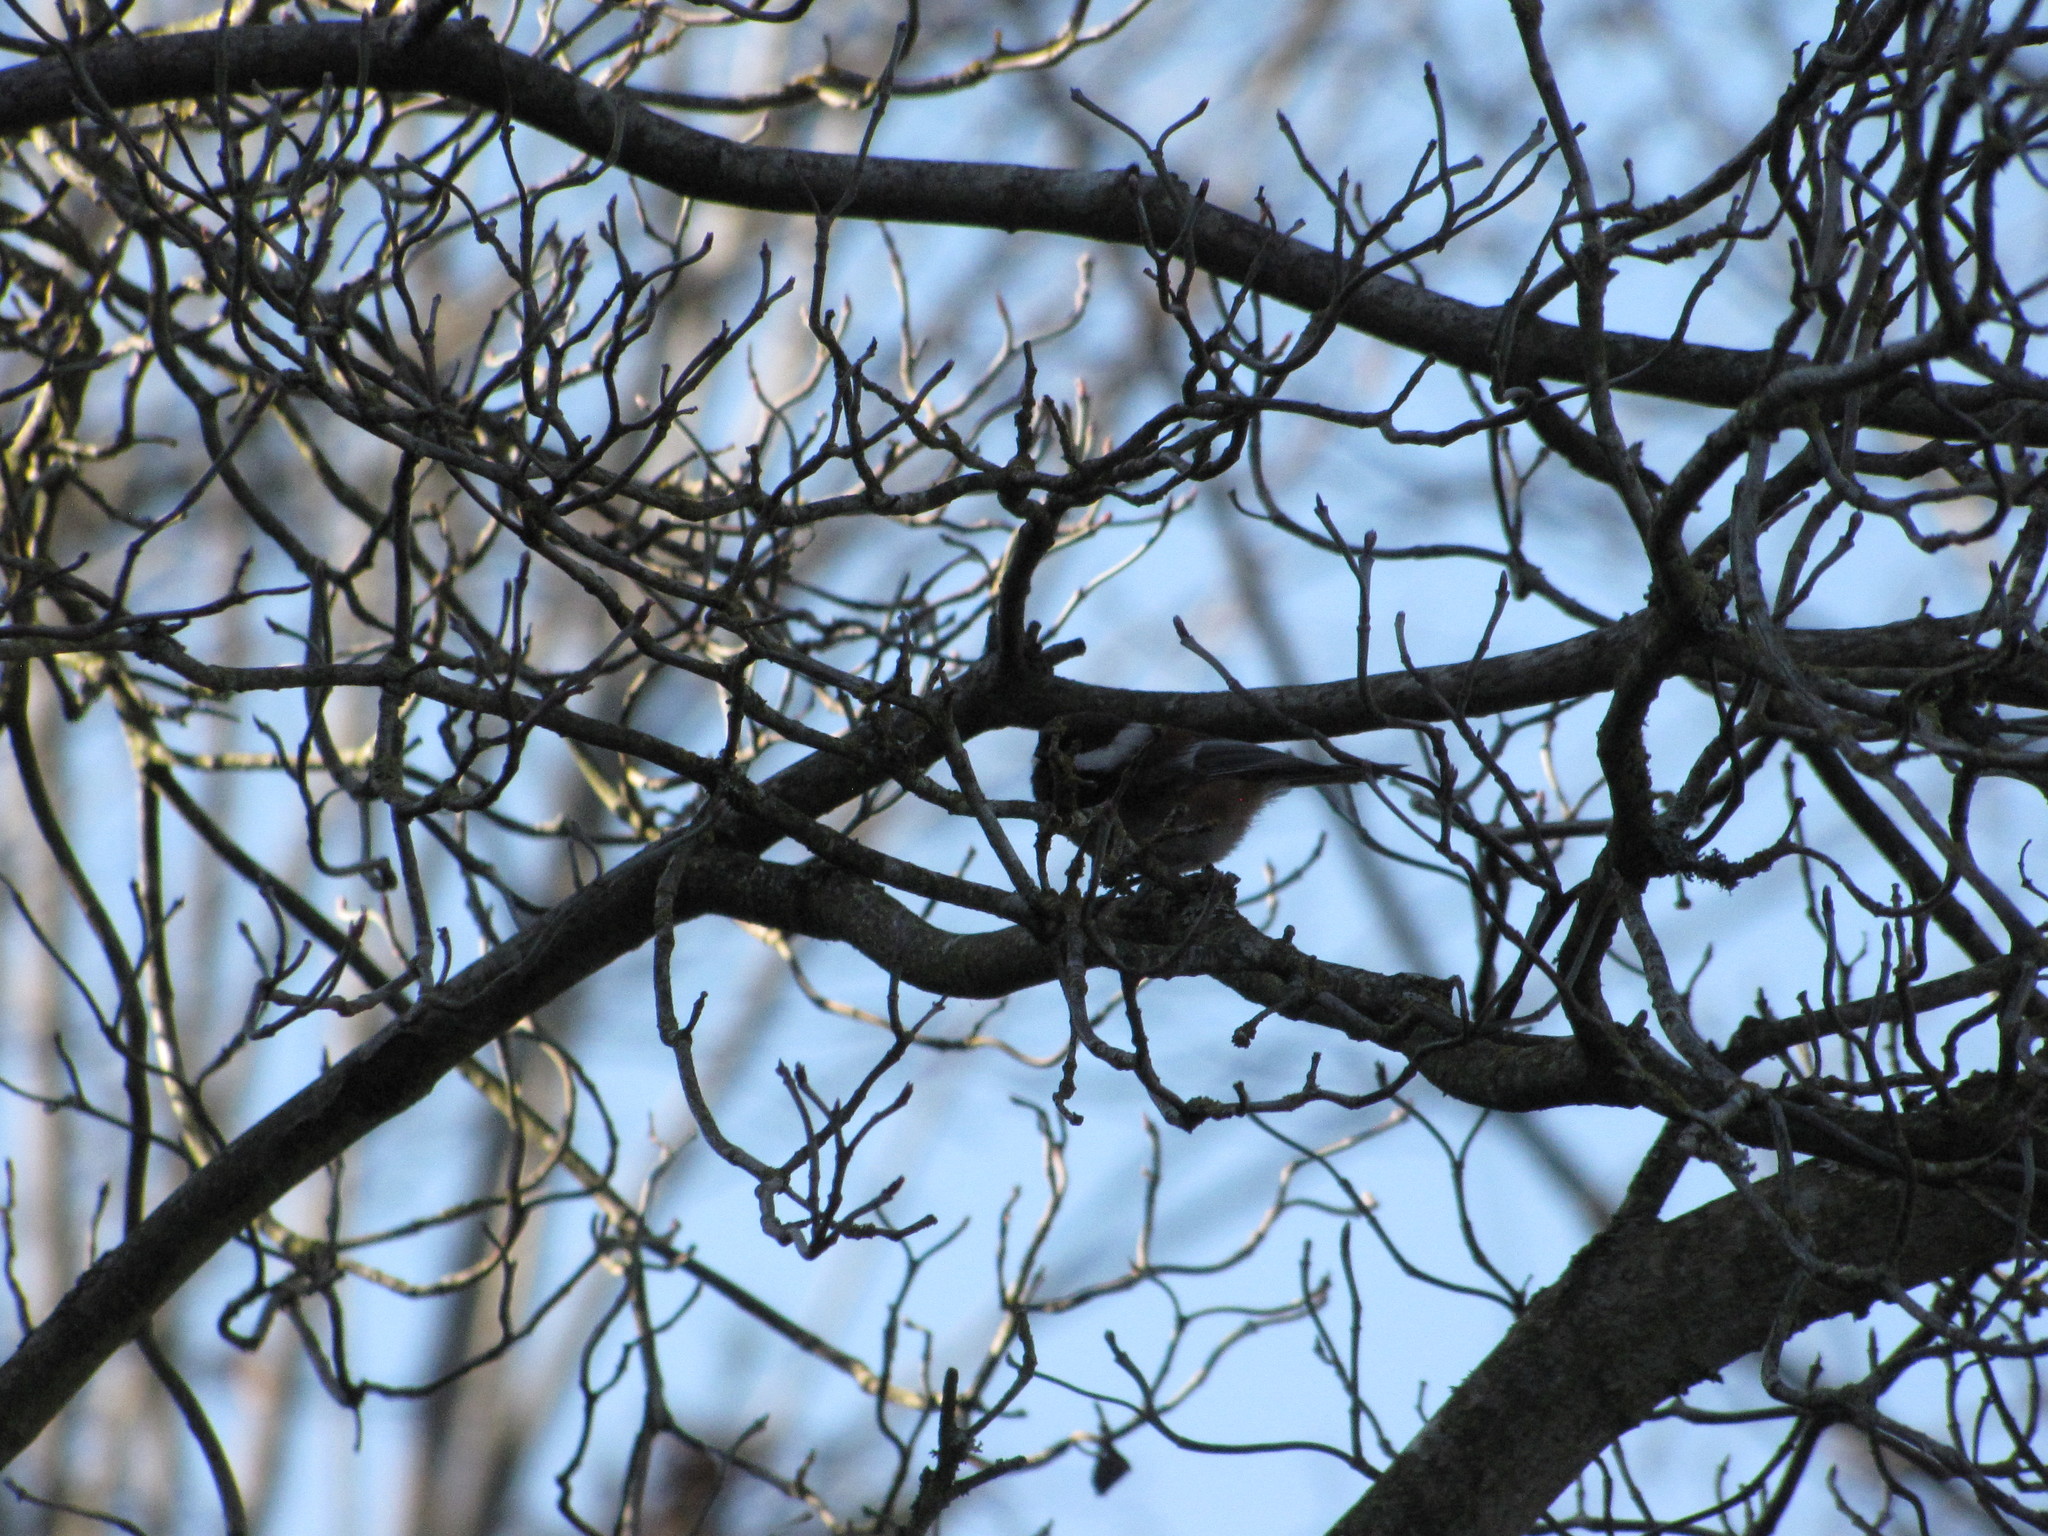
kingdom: Animalia
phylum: Chordata
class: Aves
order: Passeriformes
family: Paridae
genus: Poecile
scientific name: Poecile rufescens
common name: Chestnut-backed chickadee
